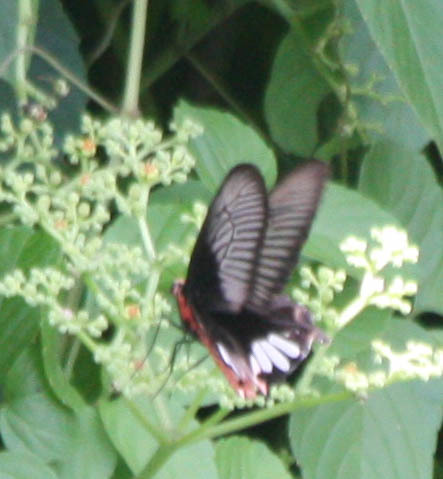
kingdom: Animalia
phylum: Arthropoda
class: Insecta
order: Lepidoptera
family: Papilionidae
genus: Pachliopta
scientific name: Pachliopta aristolochiae
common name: Common rose
